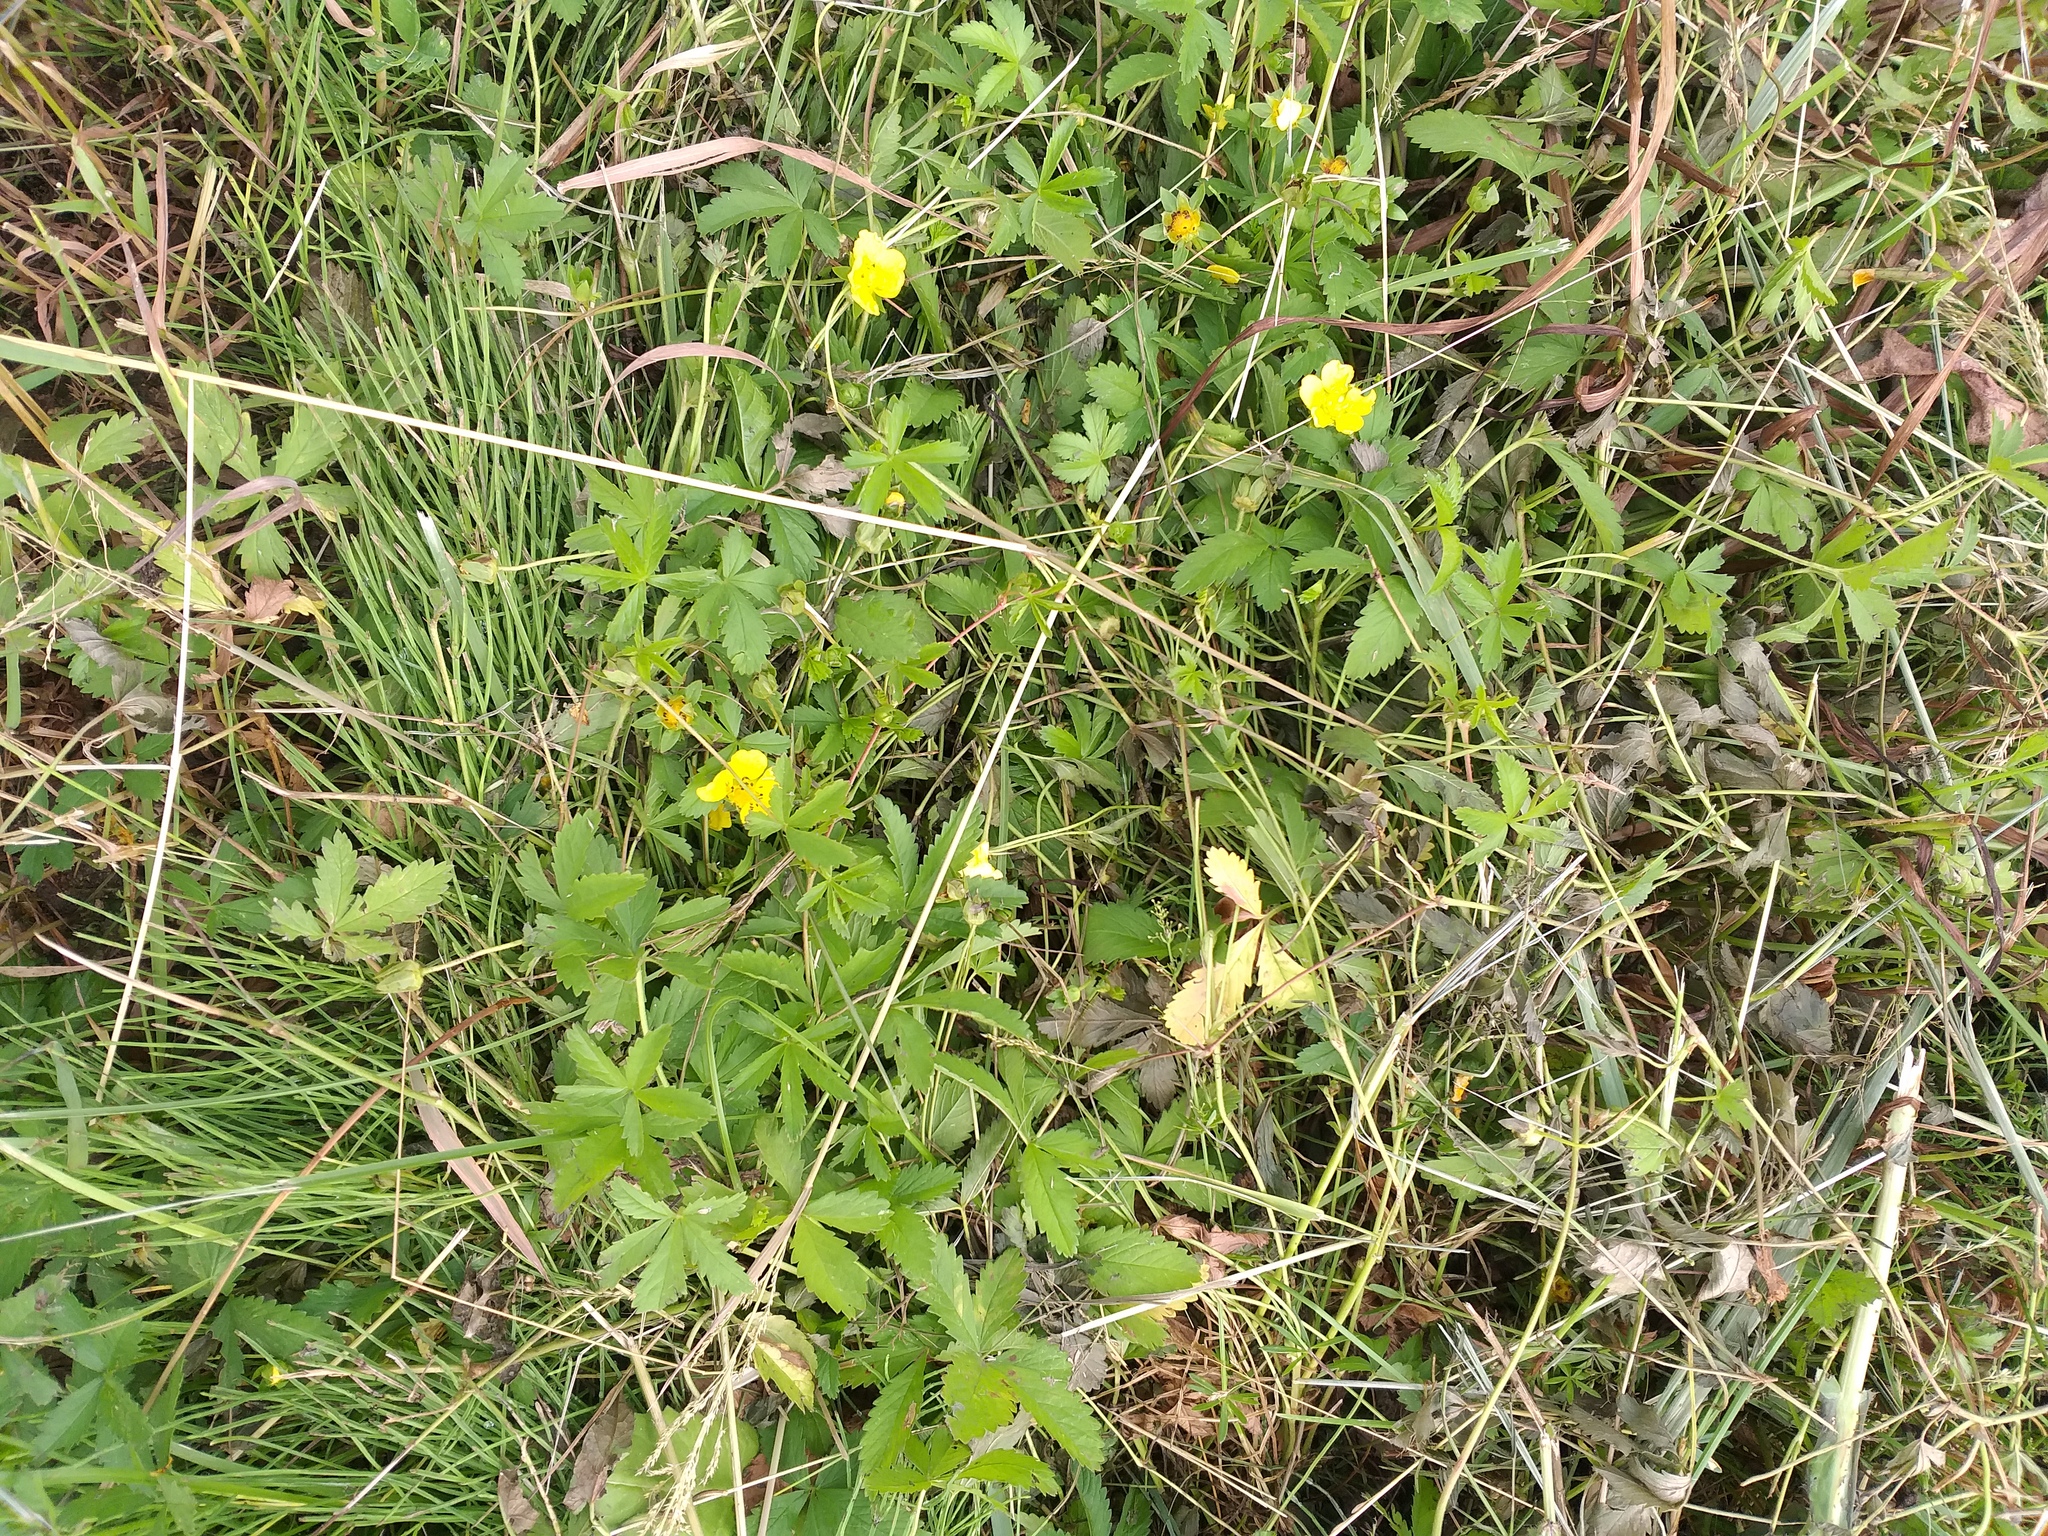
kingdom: Plantae
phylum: Tracheophyta
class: Magnoliopsida
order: Rosales
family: Rosaceae
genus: Potentilla
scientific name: Potentilla reptans
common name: Creeping cinquefoil
